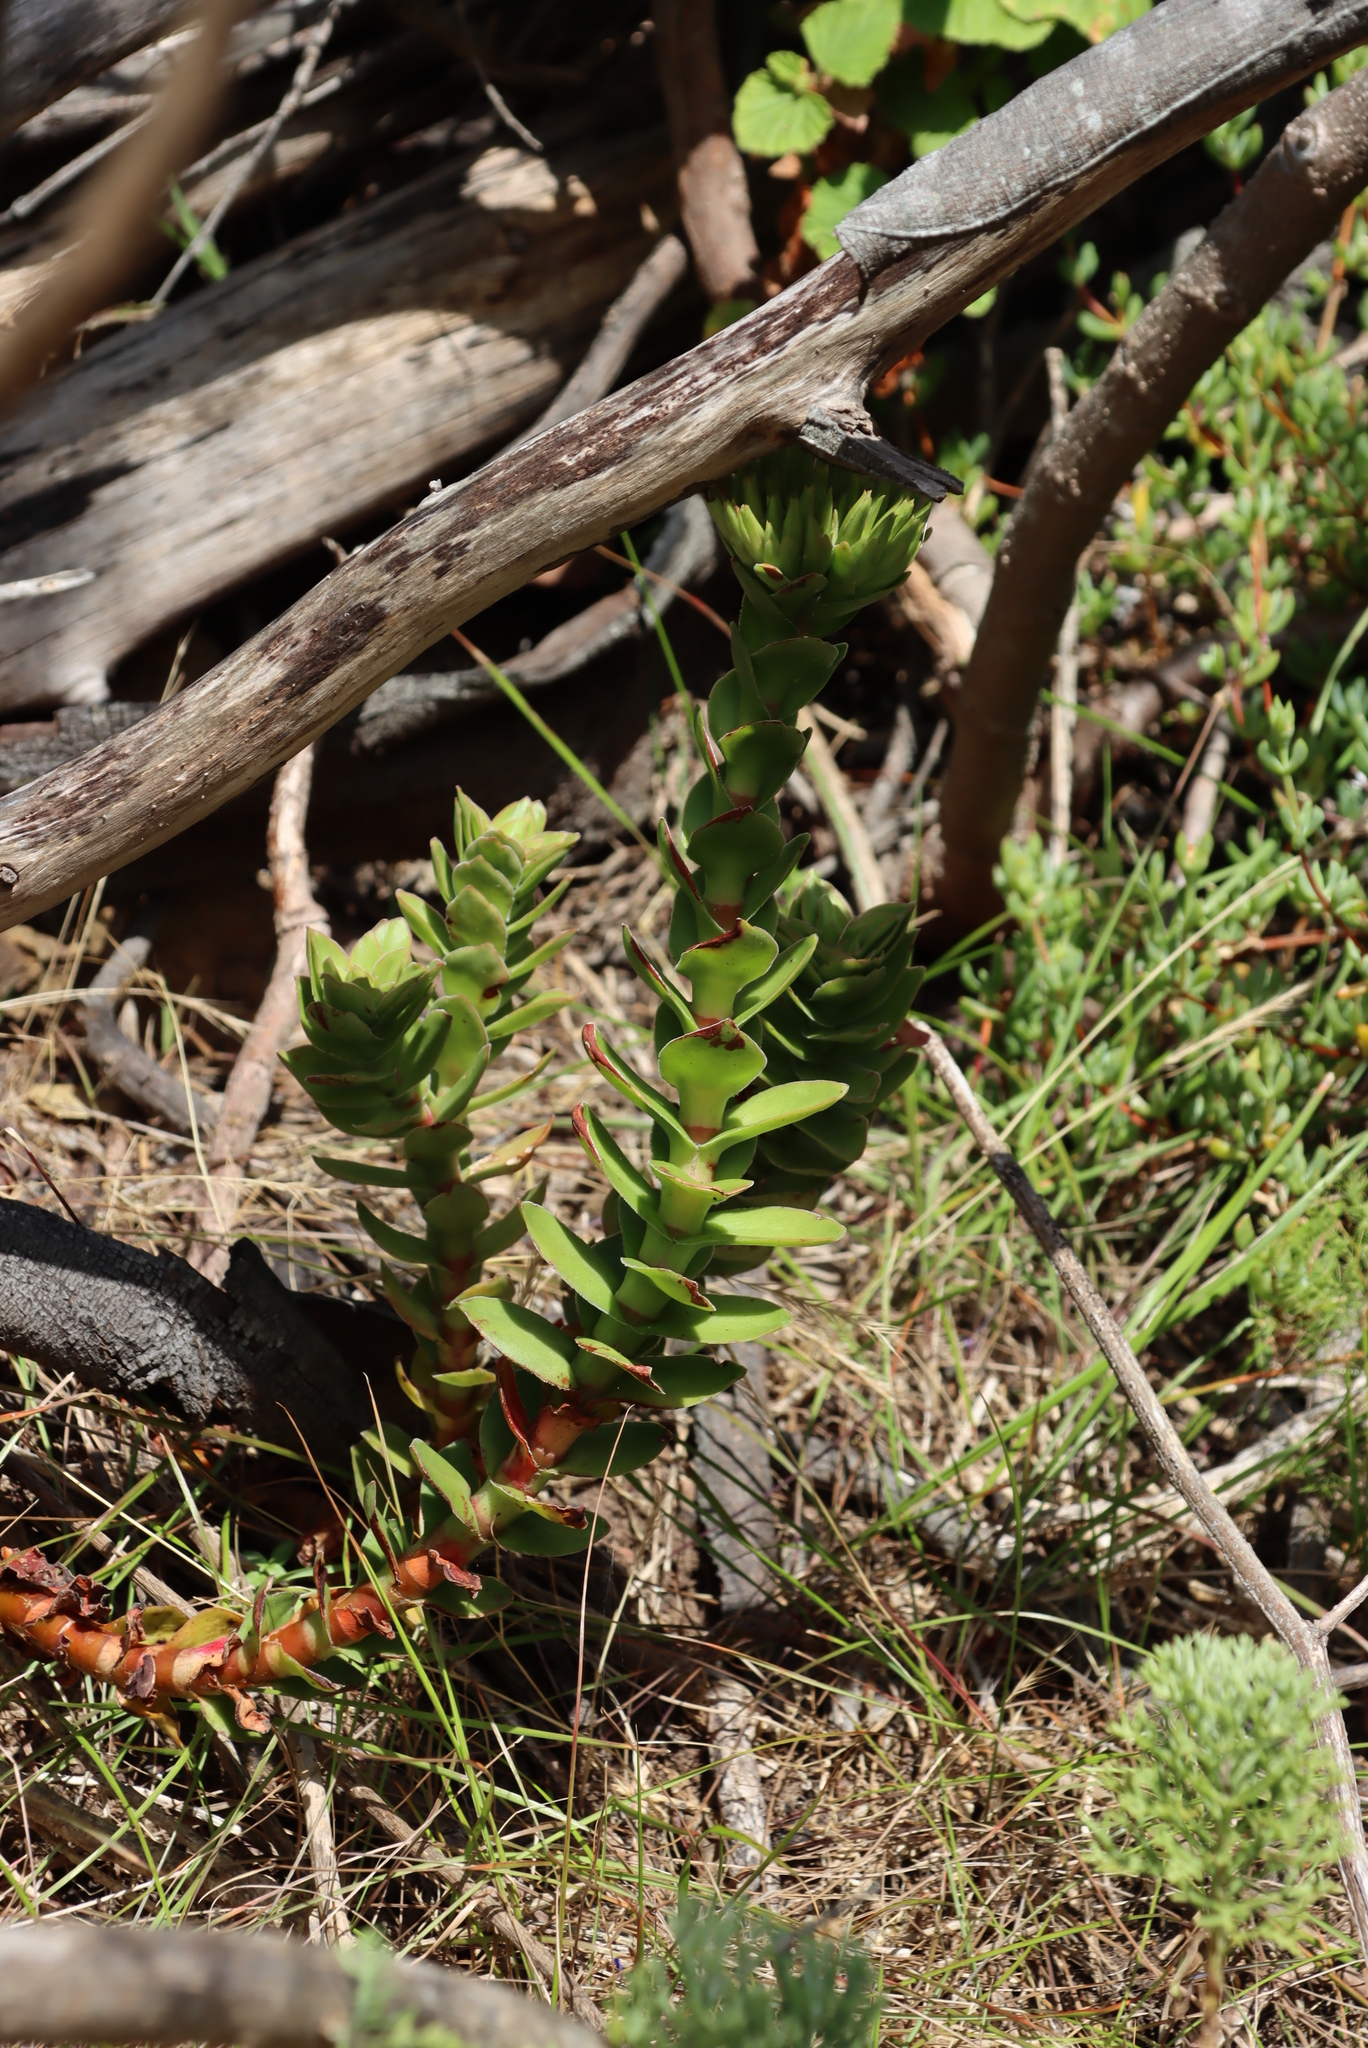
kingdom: Plantae
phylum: Tracheophyta
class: Magnoliopsida
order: Saxifragales
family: Crassulaceae
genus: Crassula
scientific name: Crassula coccinea
